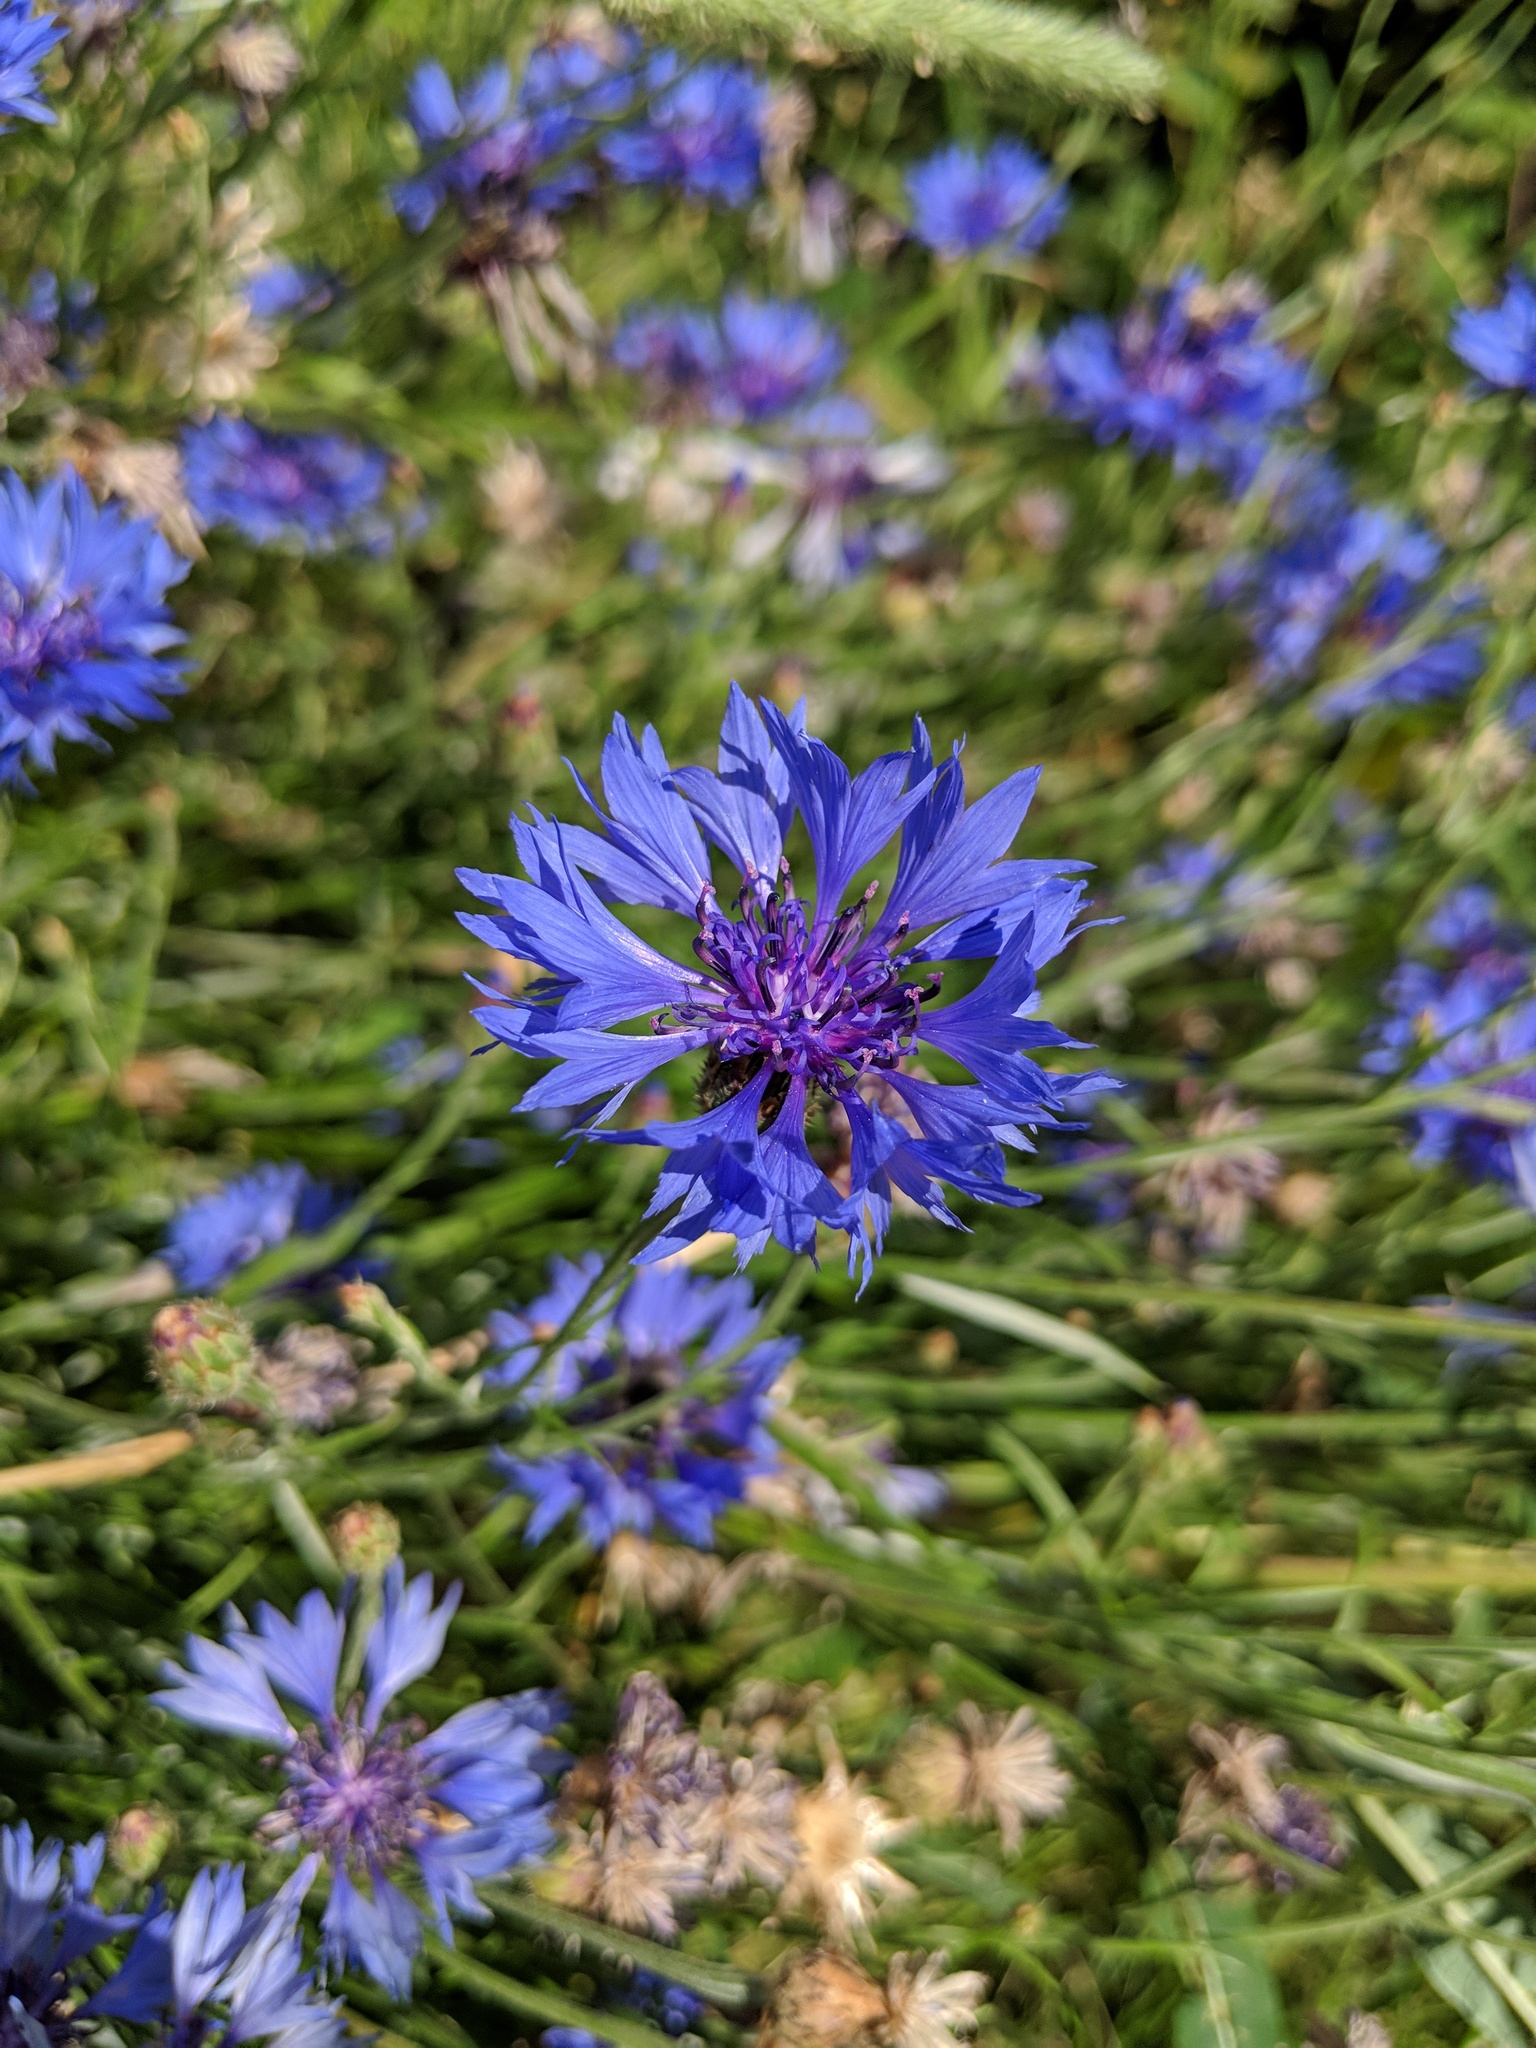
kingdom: Plantae
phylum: Tracheophyta
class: Magnoliopsida
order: Asterales
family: Asteraceae
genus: Centaurea
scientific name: Centaurea cyanus
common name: Cornflower
